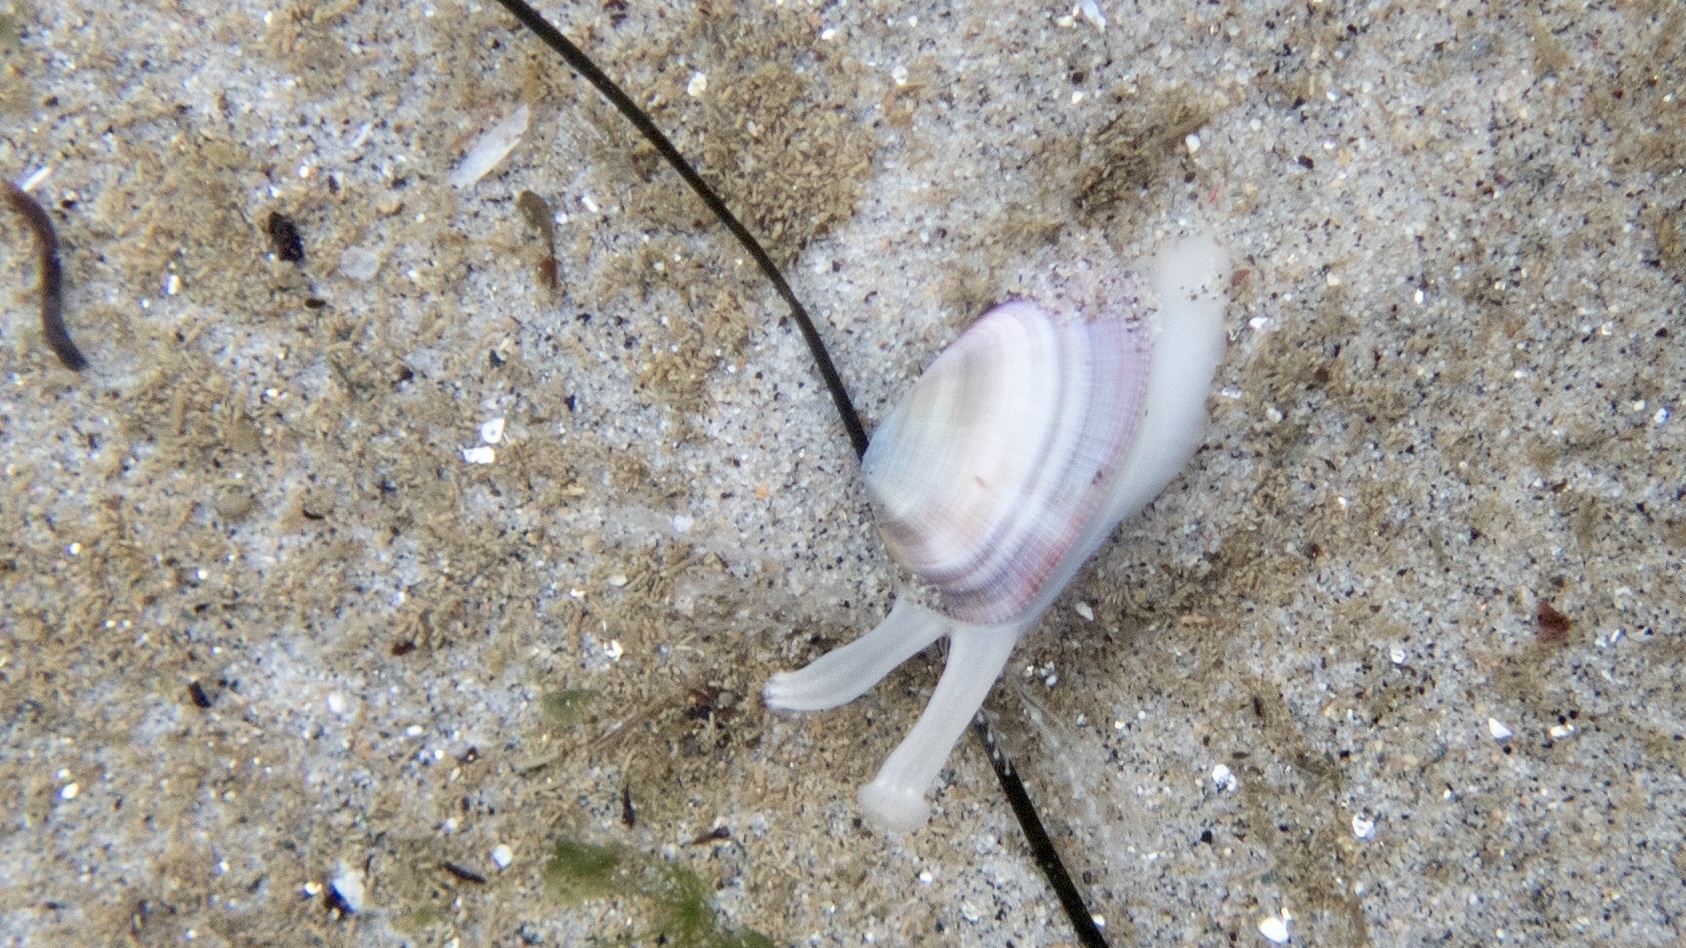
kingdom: Animalia
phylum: Mollusca
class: Bivalvia
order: Cardiida
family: Donacidae
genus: Donax
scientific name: Donax gouldii
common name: Gould beanclam
